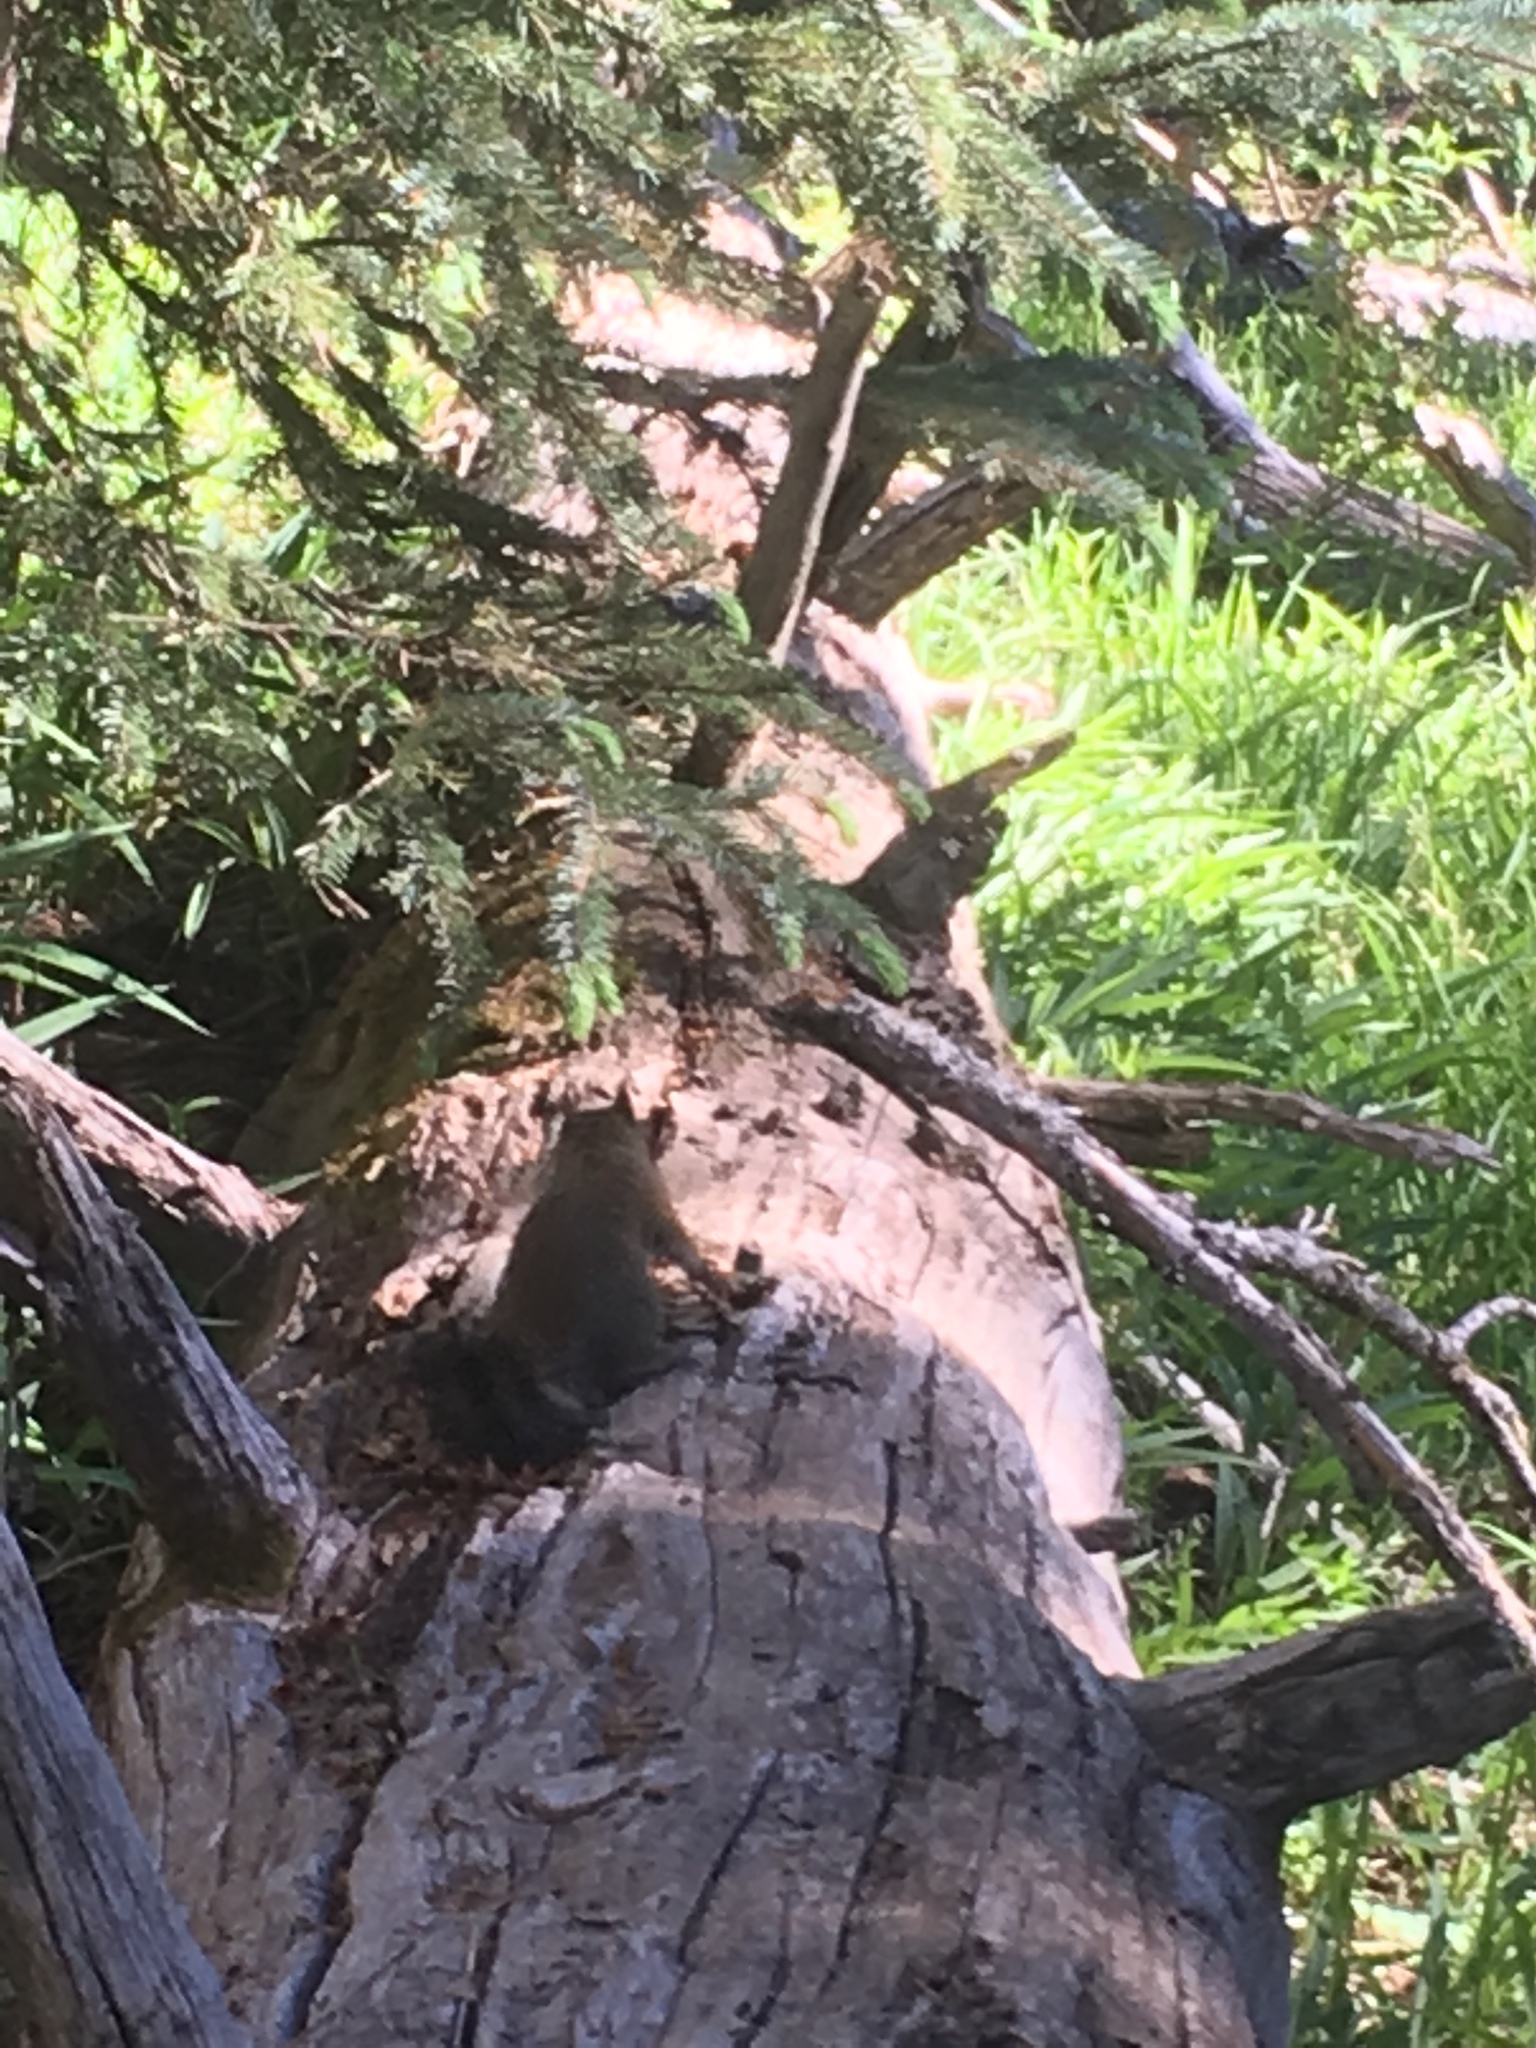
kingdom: Animalia
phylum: Chordata
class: Mammalia
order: Rodentia
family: Sciuridae
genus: Tamiasciurus
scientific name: Tamiasciurus hudsonicus
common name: Red squirrel
